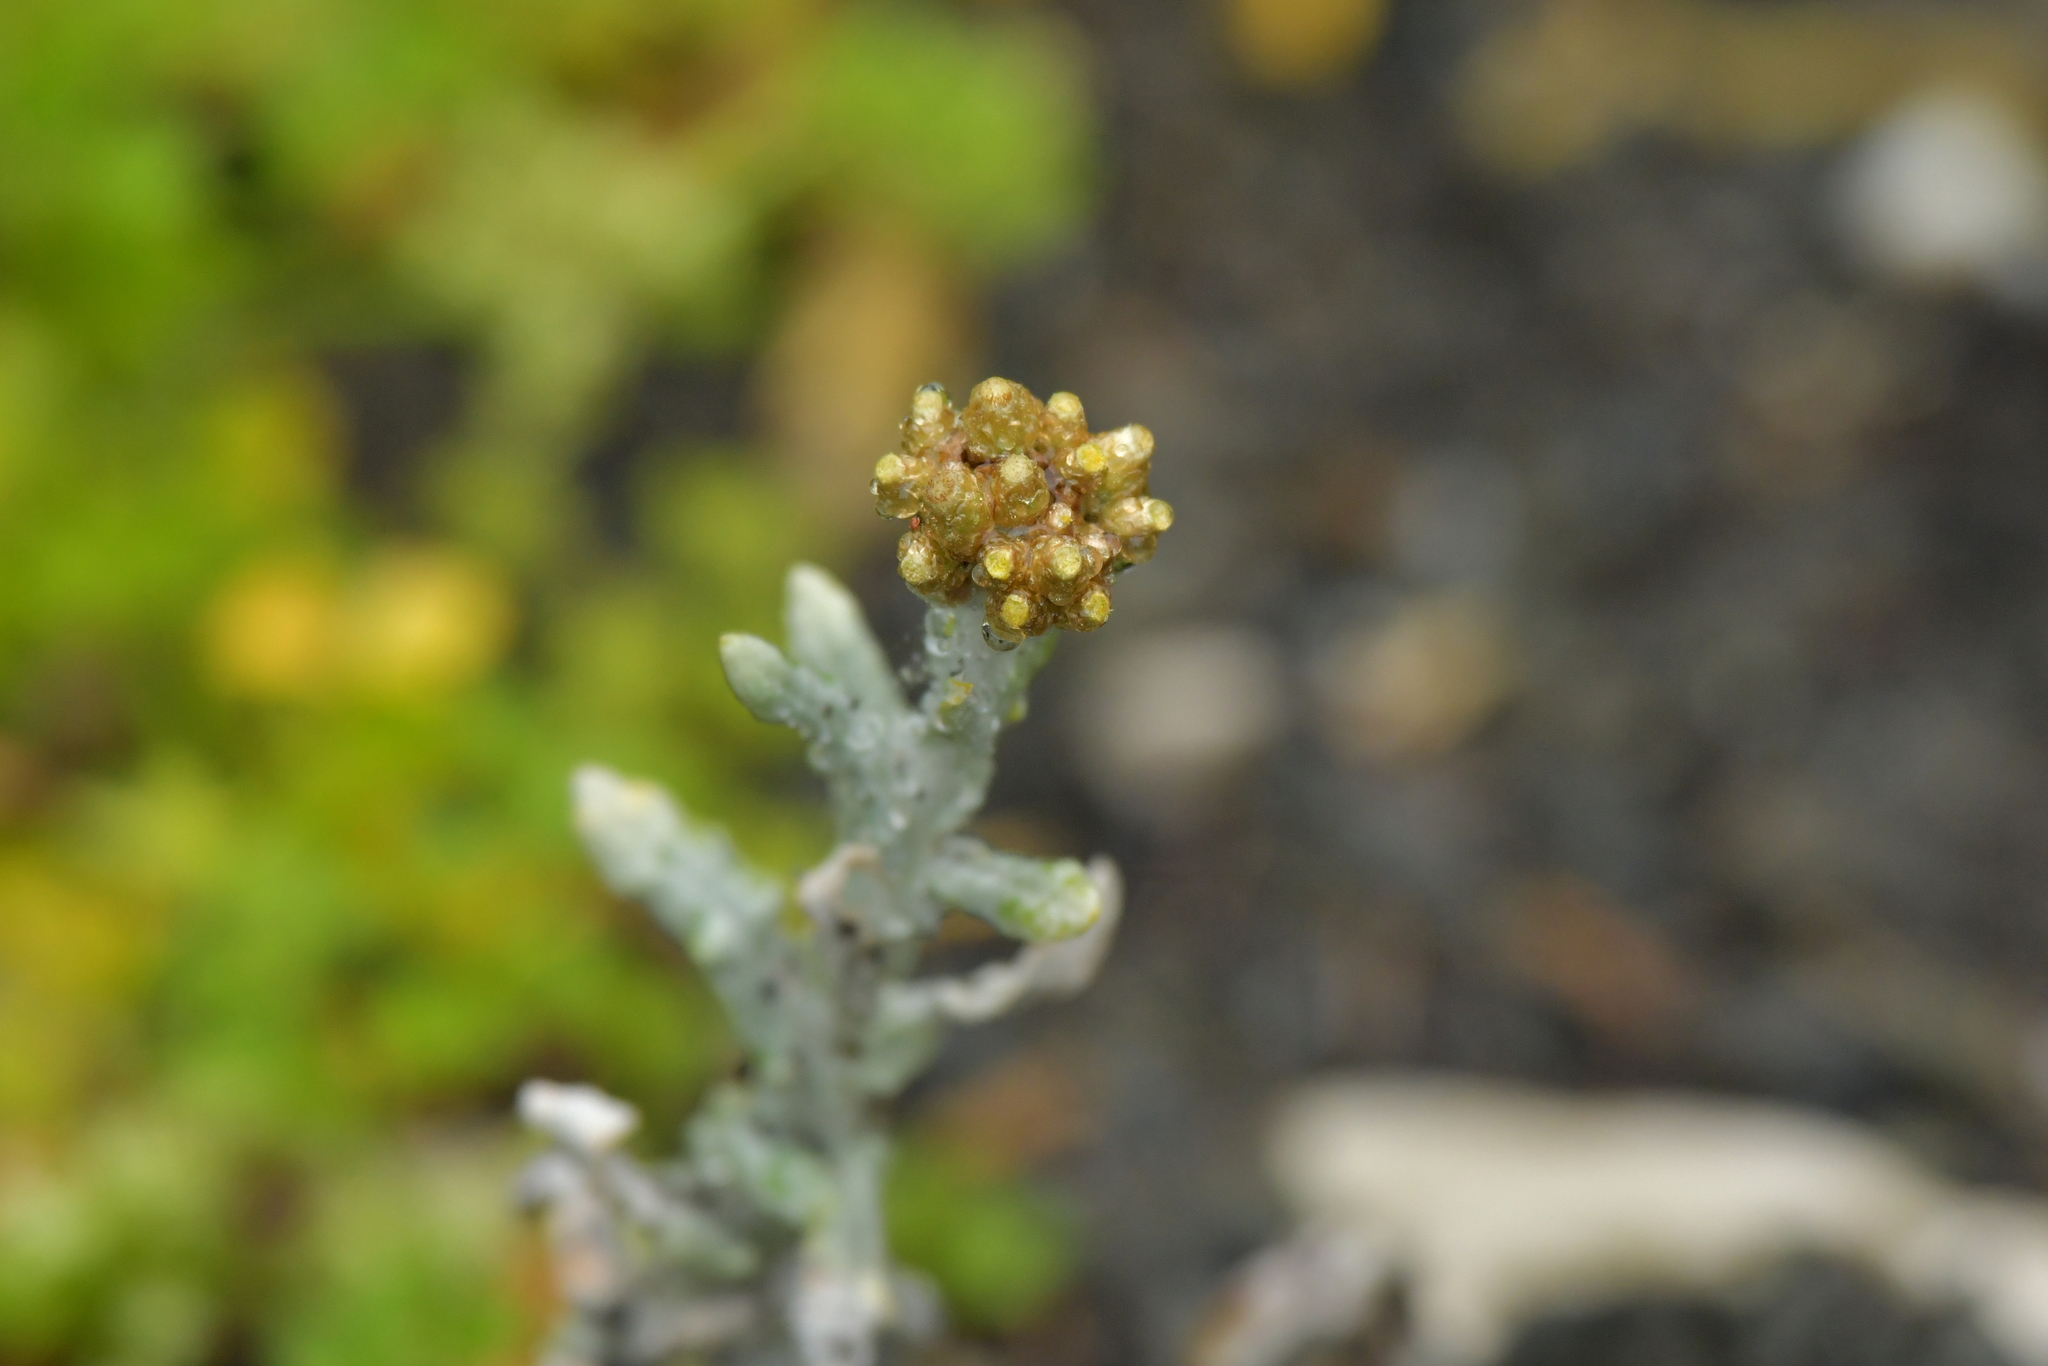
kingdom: Plantae
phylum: Tracheophyta
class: Magnoliopsida
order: Asterales
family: Asteraceae
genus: Helichrysum
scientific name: Helichrysum luteoalbum
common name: Daisy
